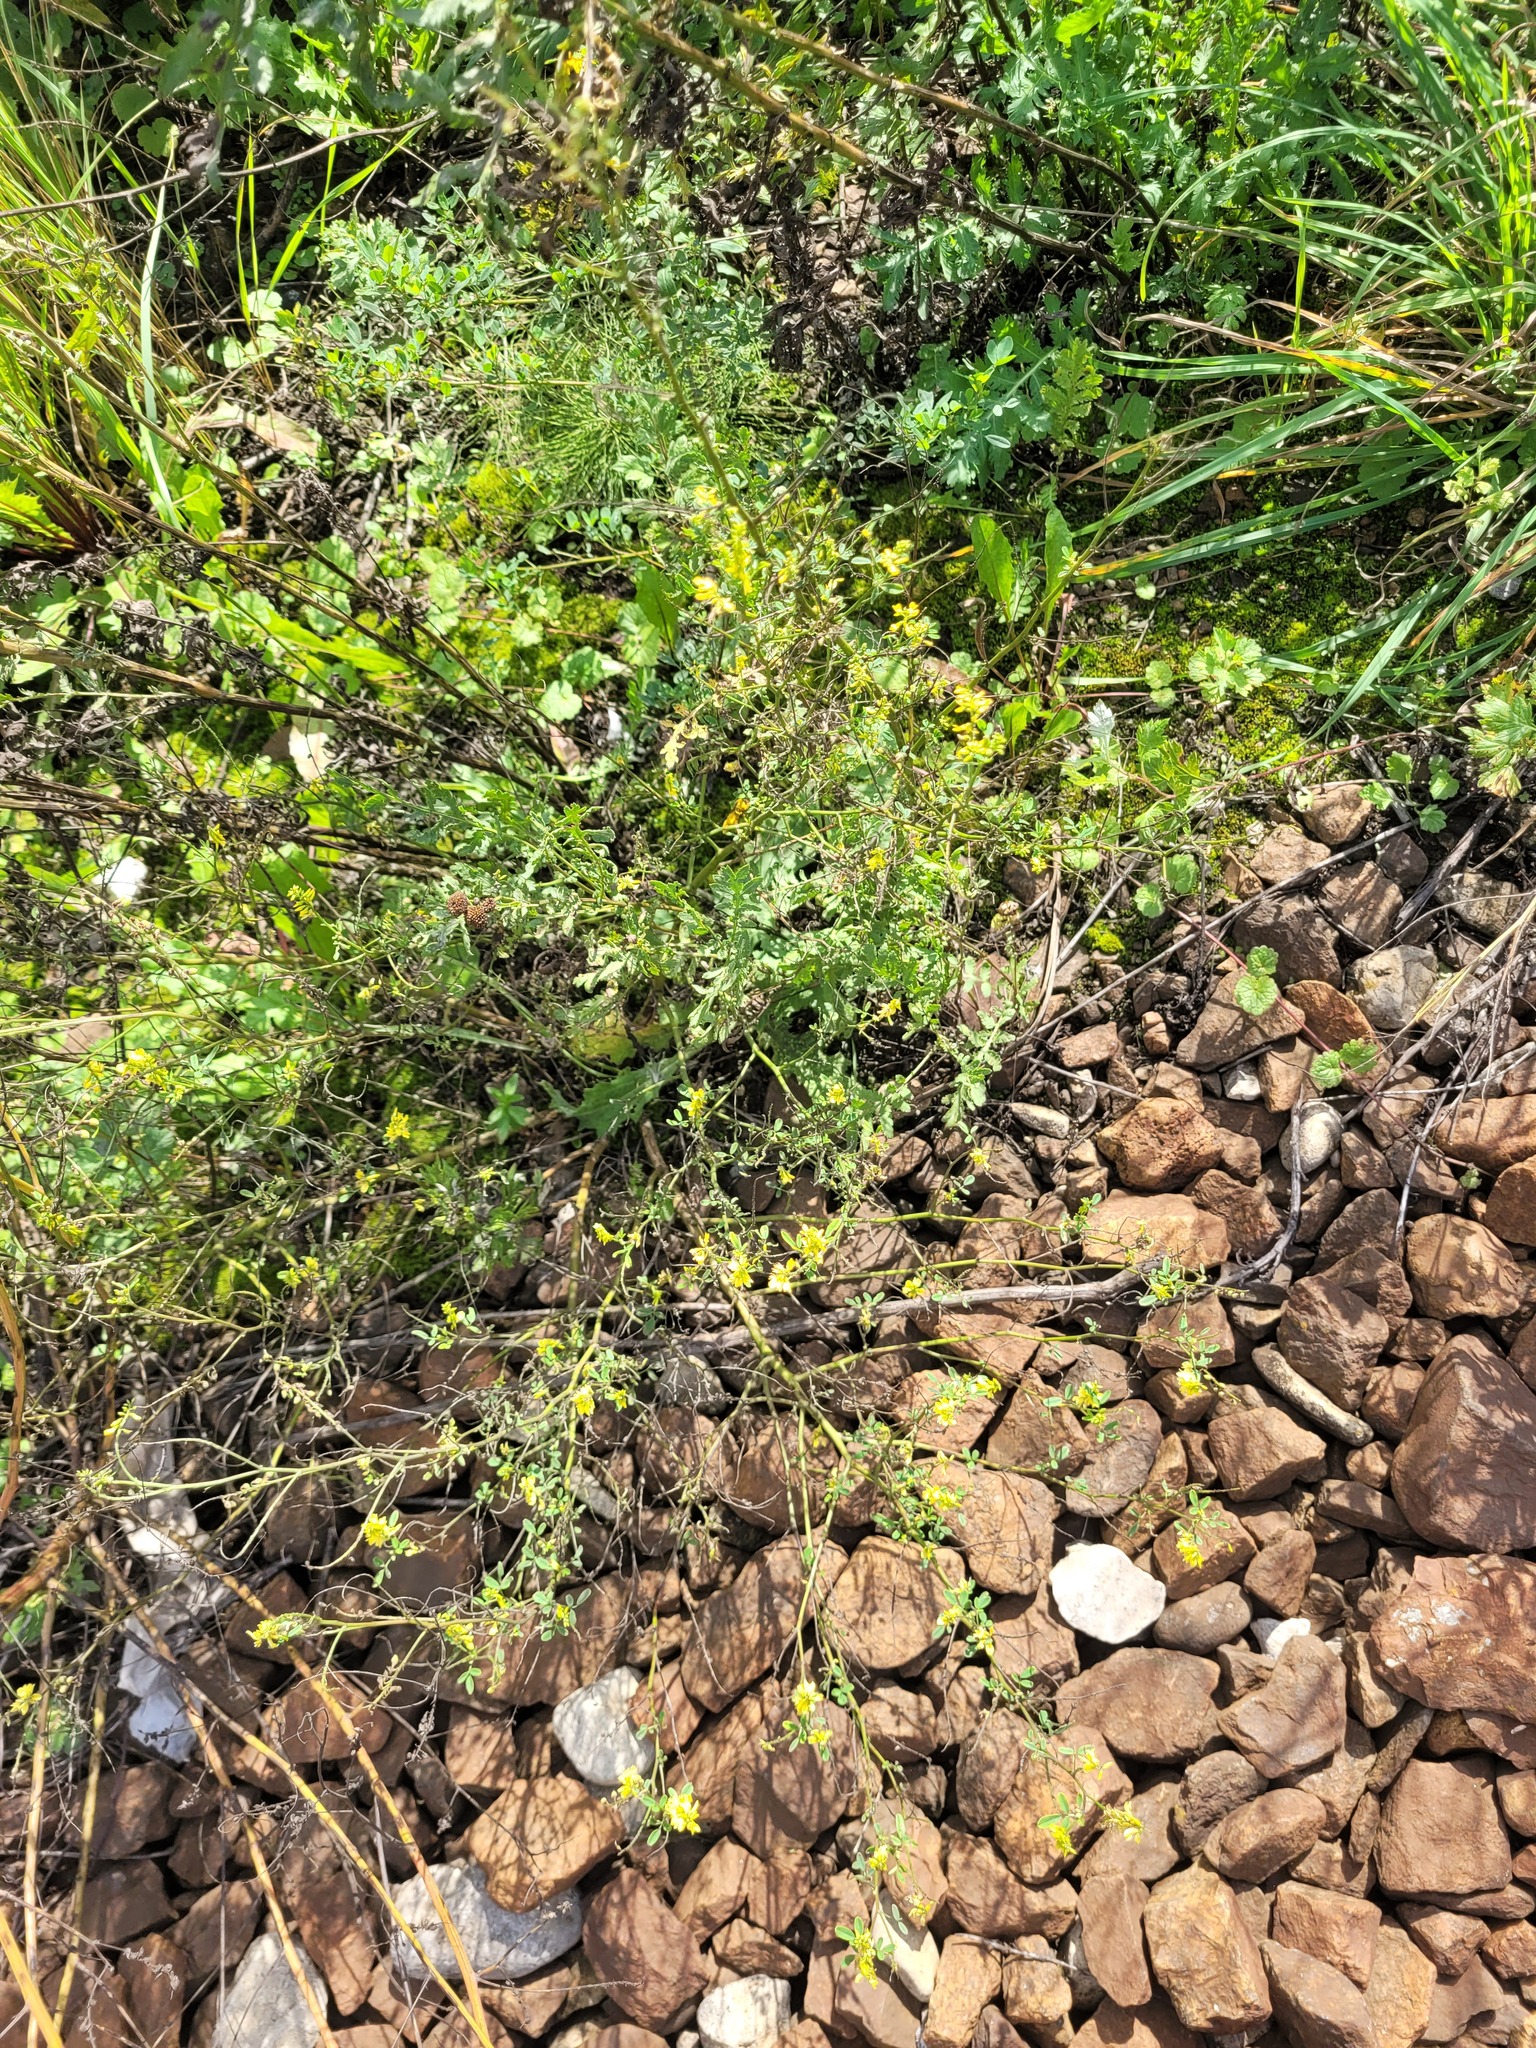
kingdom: Plantae
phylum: Tracheophyta
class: Magnoliopsida
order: Fabales
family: Fabaceae
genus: Melilotus
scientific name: Melilotus officinalis
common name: Sweetclover
